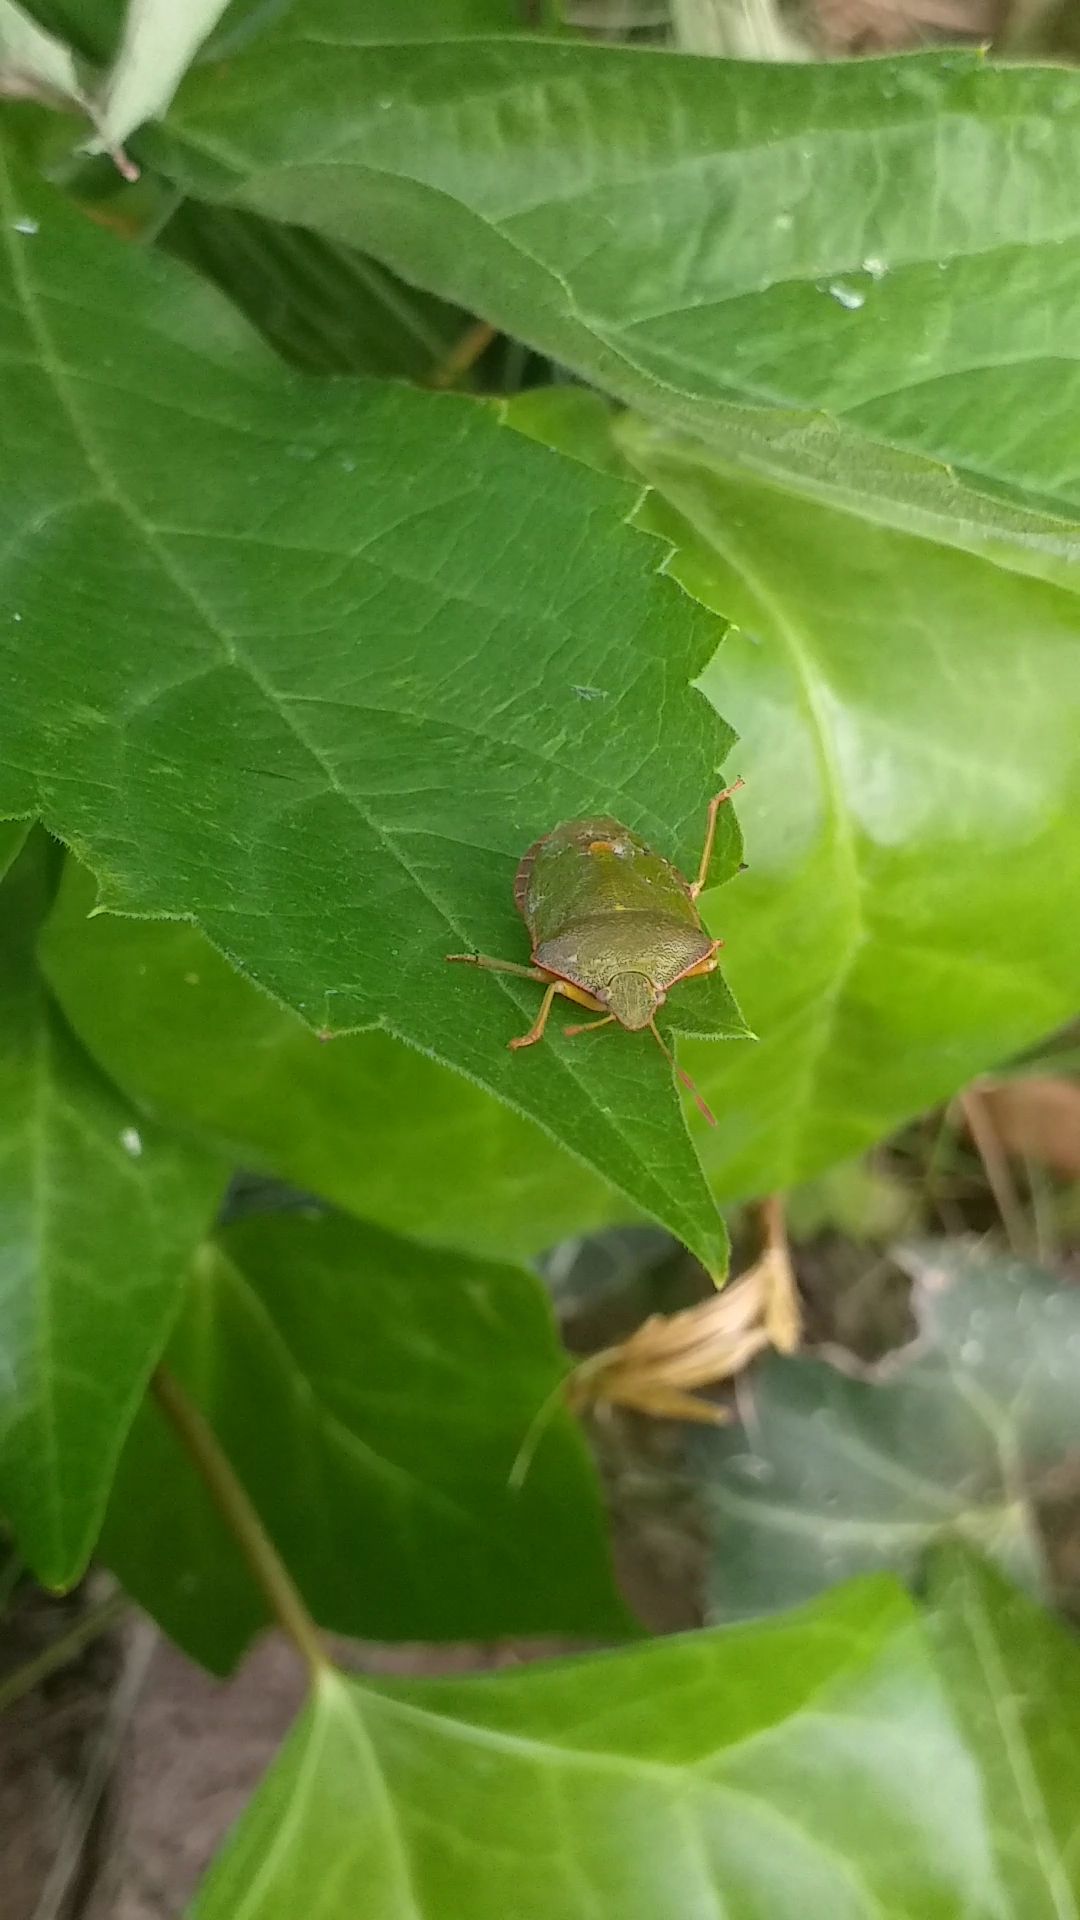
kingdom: Animalia
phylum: Arthropoda
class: Insecta
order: Hemiptera
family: Pentatomidae
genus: Palomena
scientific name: Palomena prasina
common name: Green shieldbug
